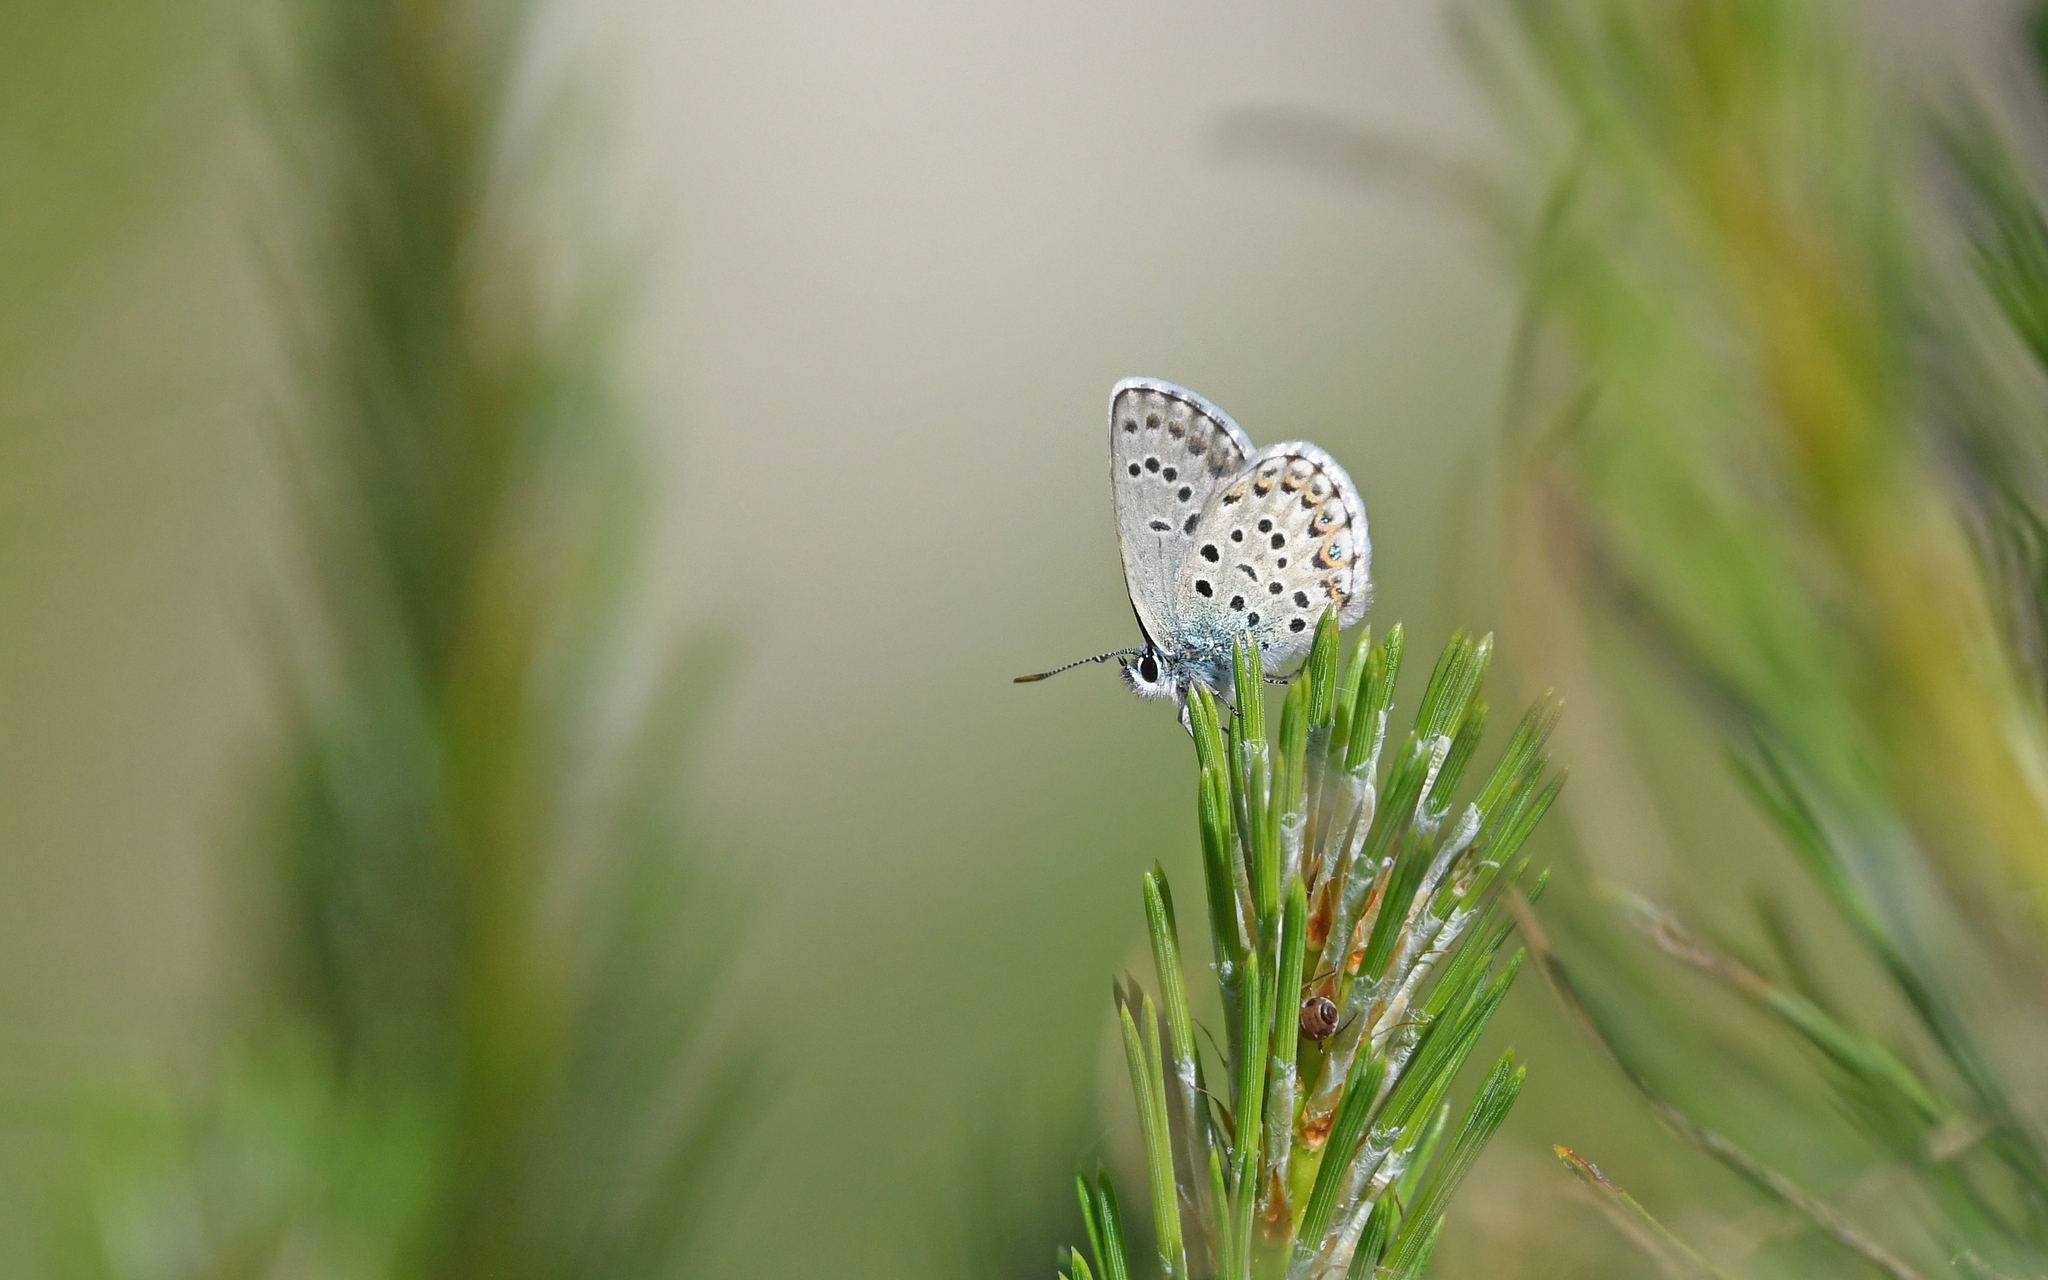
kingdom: Animalia
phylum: Arthropoda
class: Insecta
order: Lepidoptera
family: Lycaenidae
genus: Lycaeides
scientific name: Lycaeides idas
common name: Northern blue
